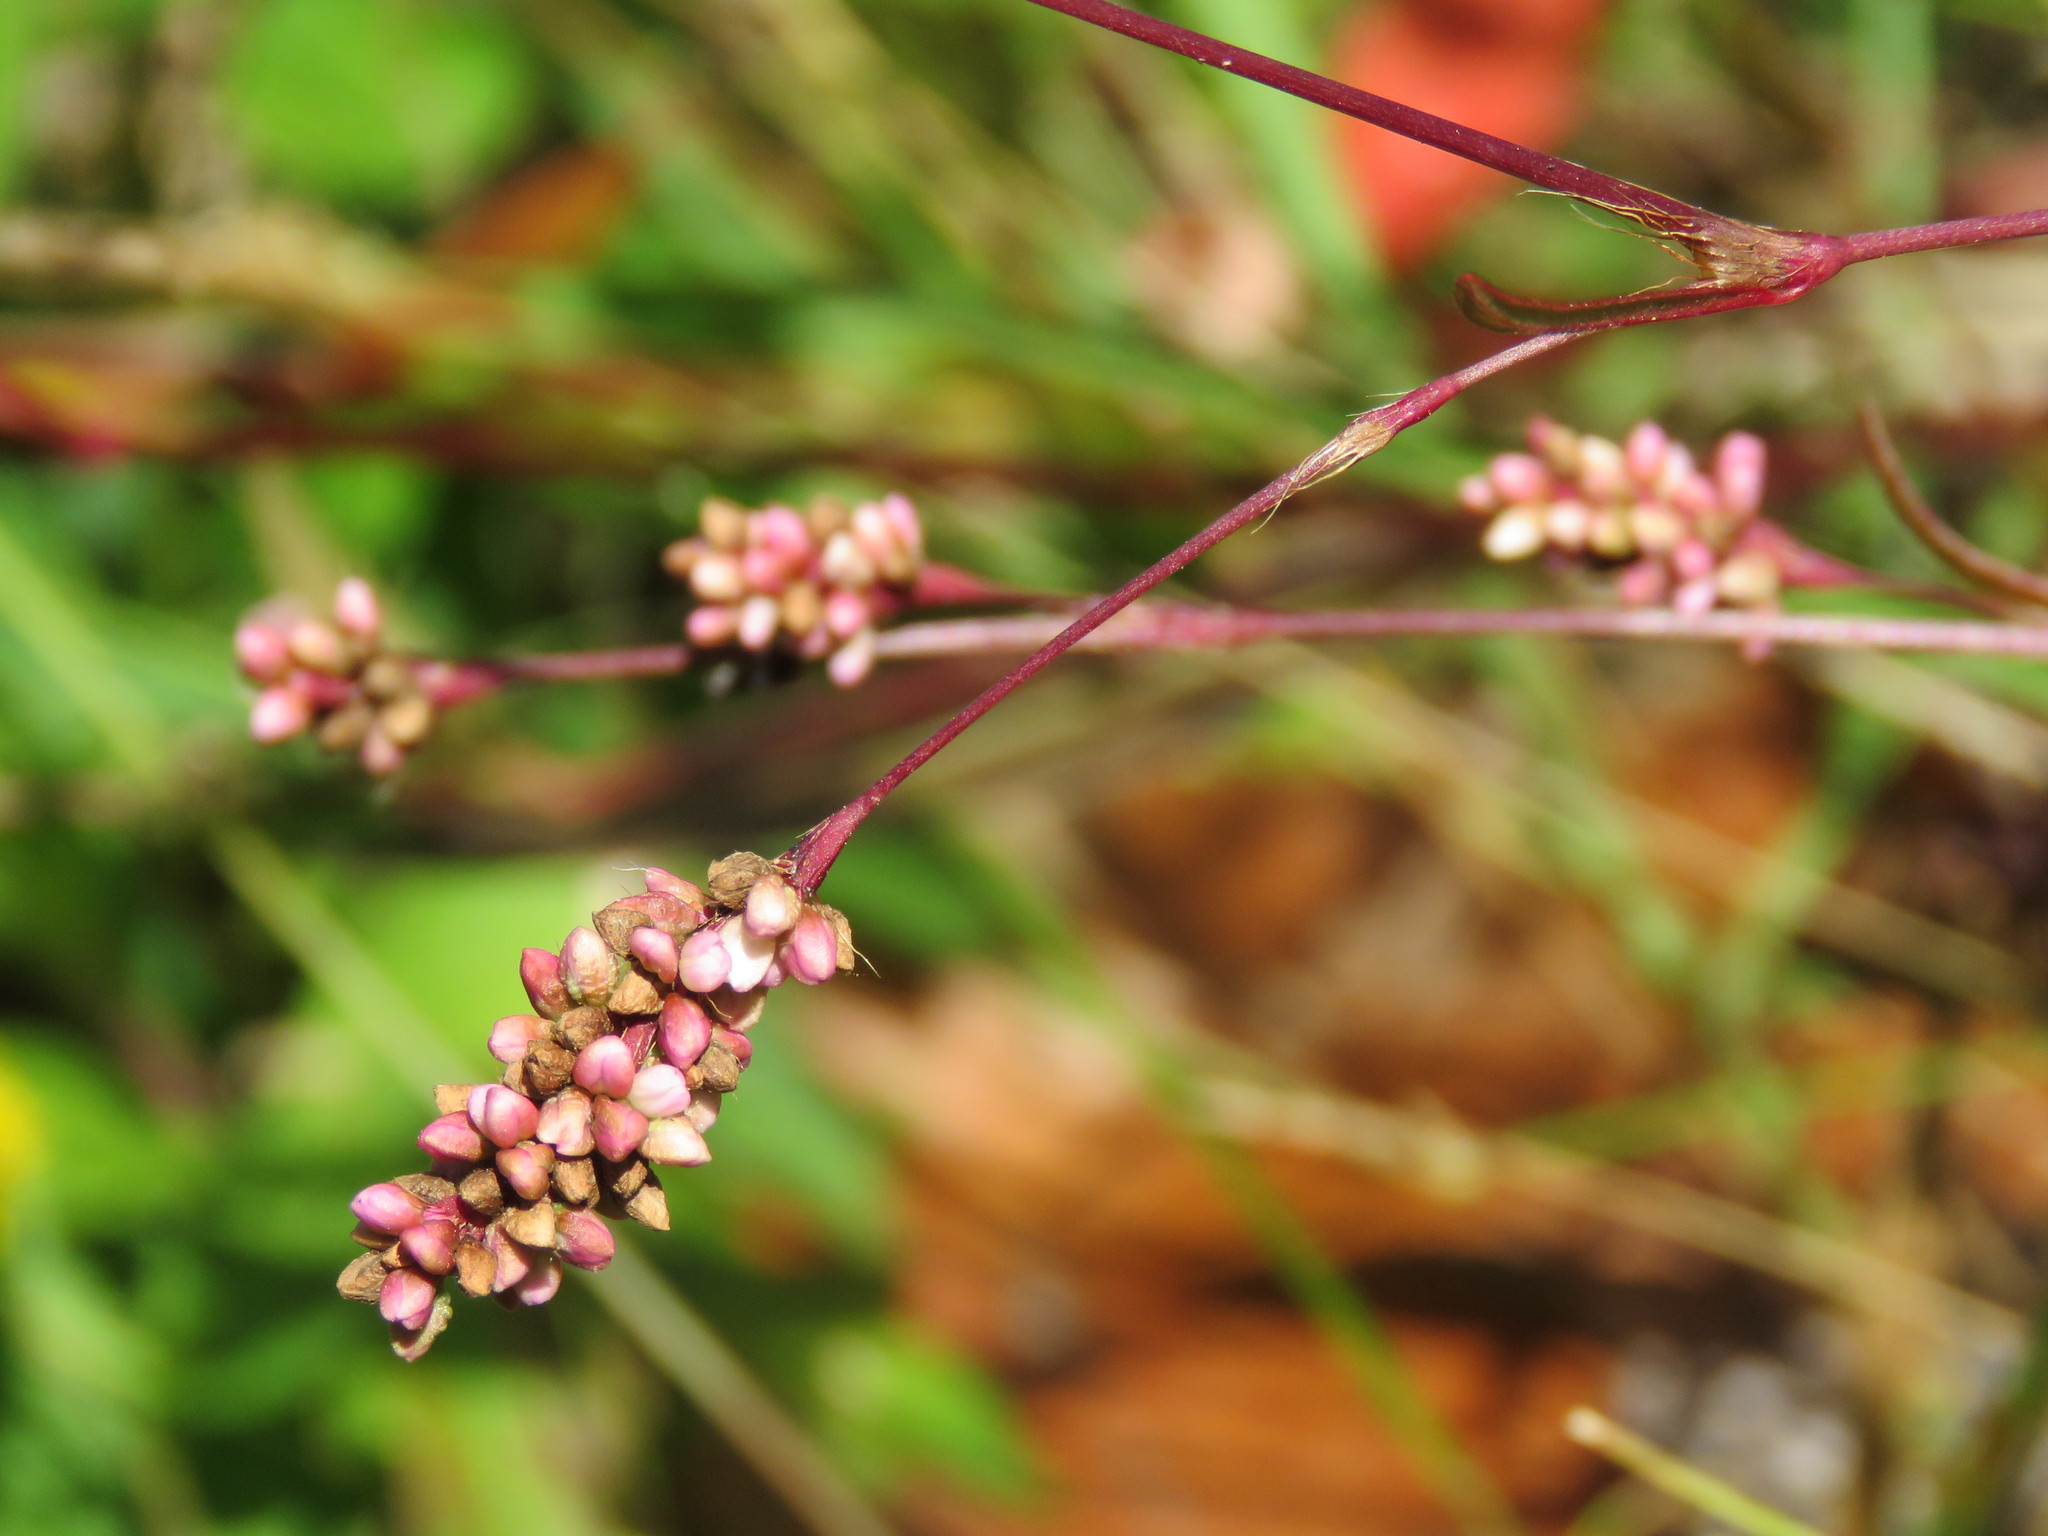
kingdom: Plantae
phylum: Tracheophyta
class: Magnoliopsida
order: Caryophyllales
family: Polygonaceae
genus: Persicaria
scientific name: Persicaria hydropiperoides
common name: Swamp smartweed
